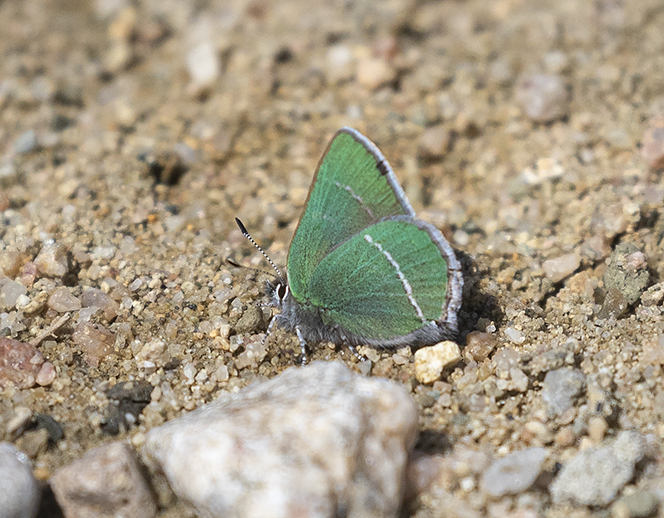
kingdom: Animalia
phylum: Arthropoda
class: Insecta
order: Lepidoptera
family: Lycaenidae
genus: Thecla
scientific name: Thecla sheridanii
